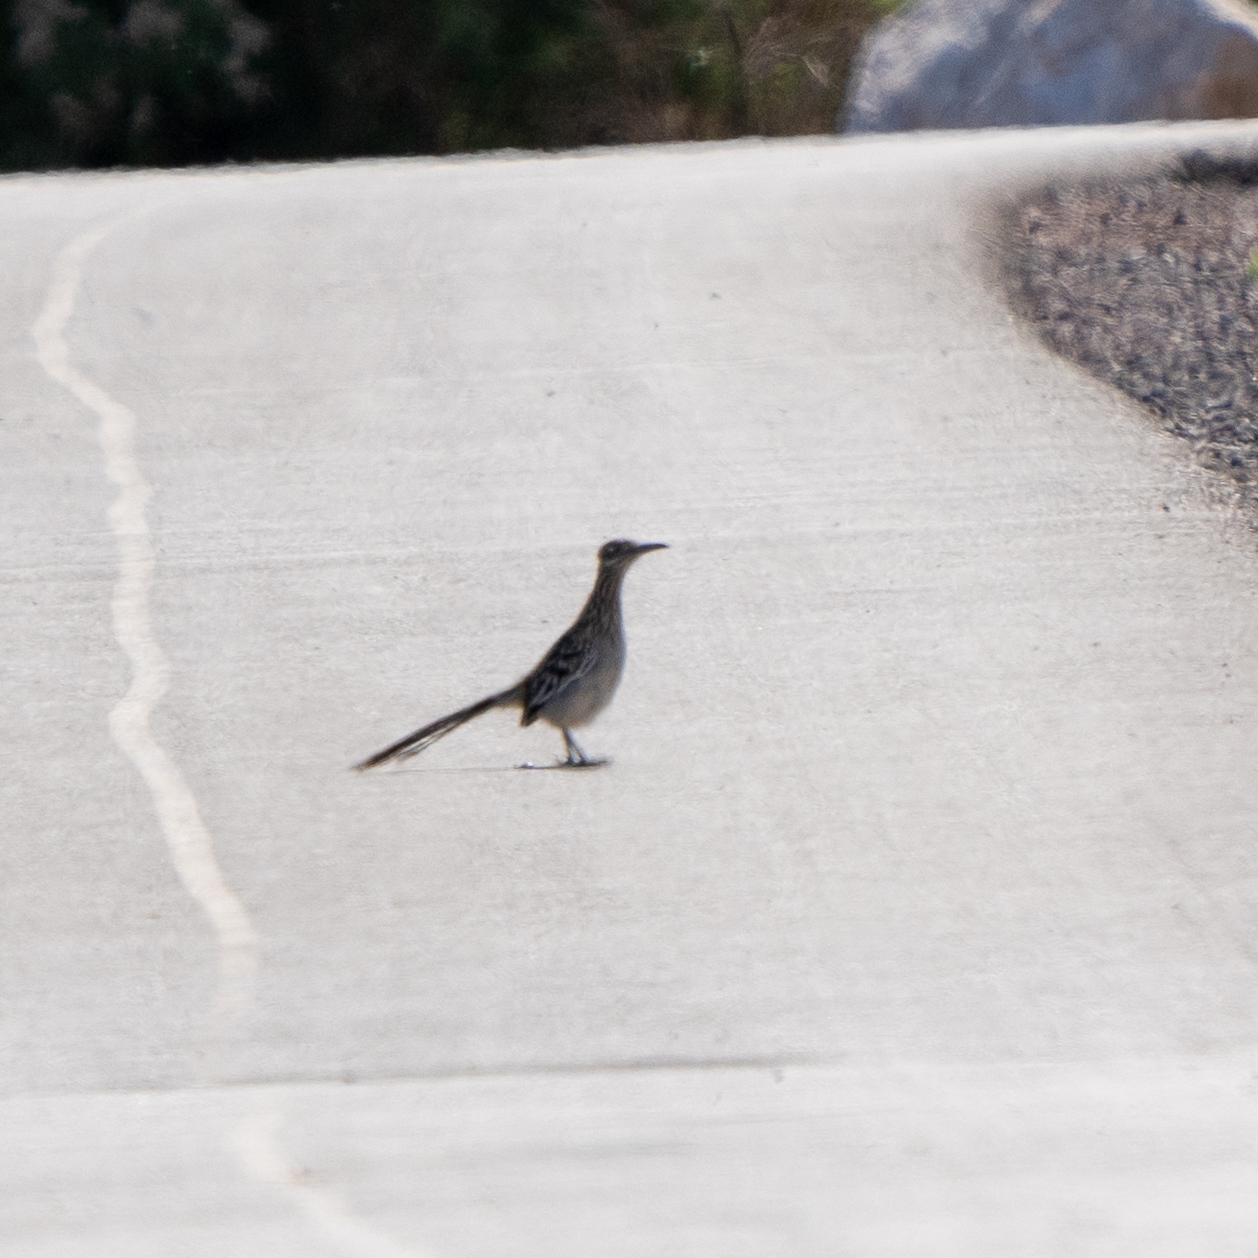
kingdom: Animalia
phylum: Chordata
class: Aves
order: Cuculiformes
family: Cuculidae
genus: Geococcyx
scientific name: Geococcyx californianus
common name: Greater roadrunner
